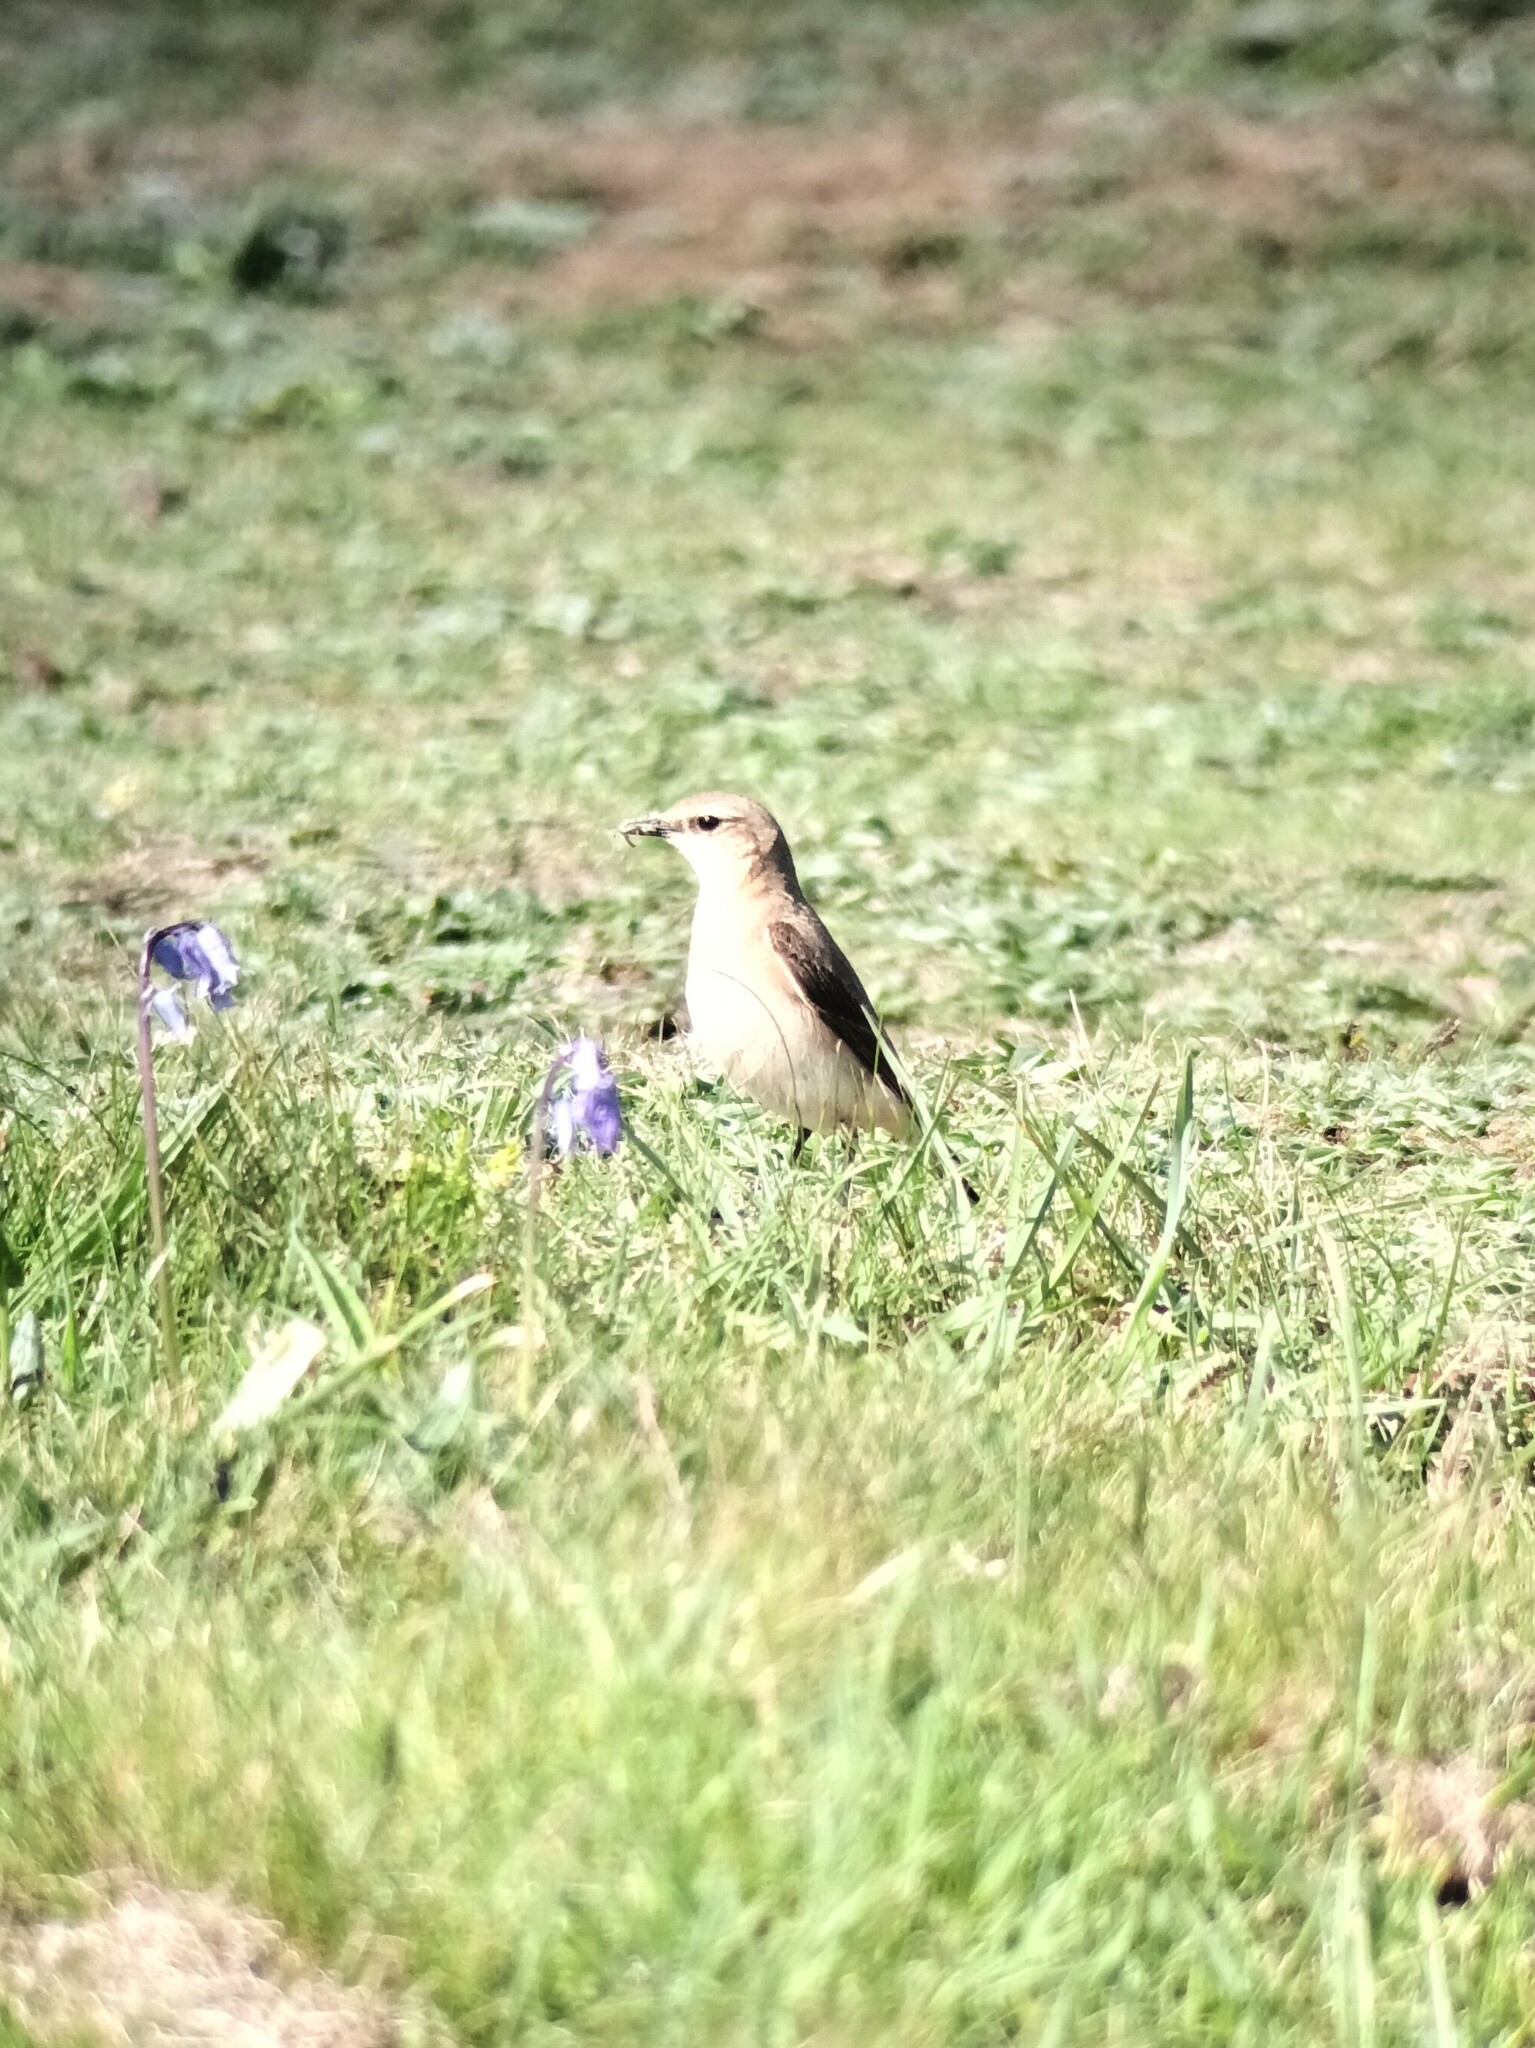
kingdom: Animalia
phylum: Chordata
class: Aves
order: Passeriformes
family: Muscicapidae
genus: Oenanthe
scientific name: Oenanthe oenanthe
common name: Northern wheatear
